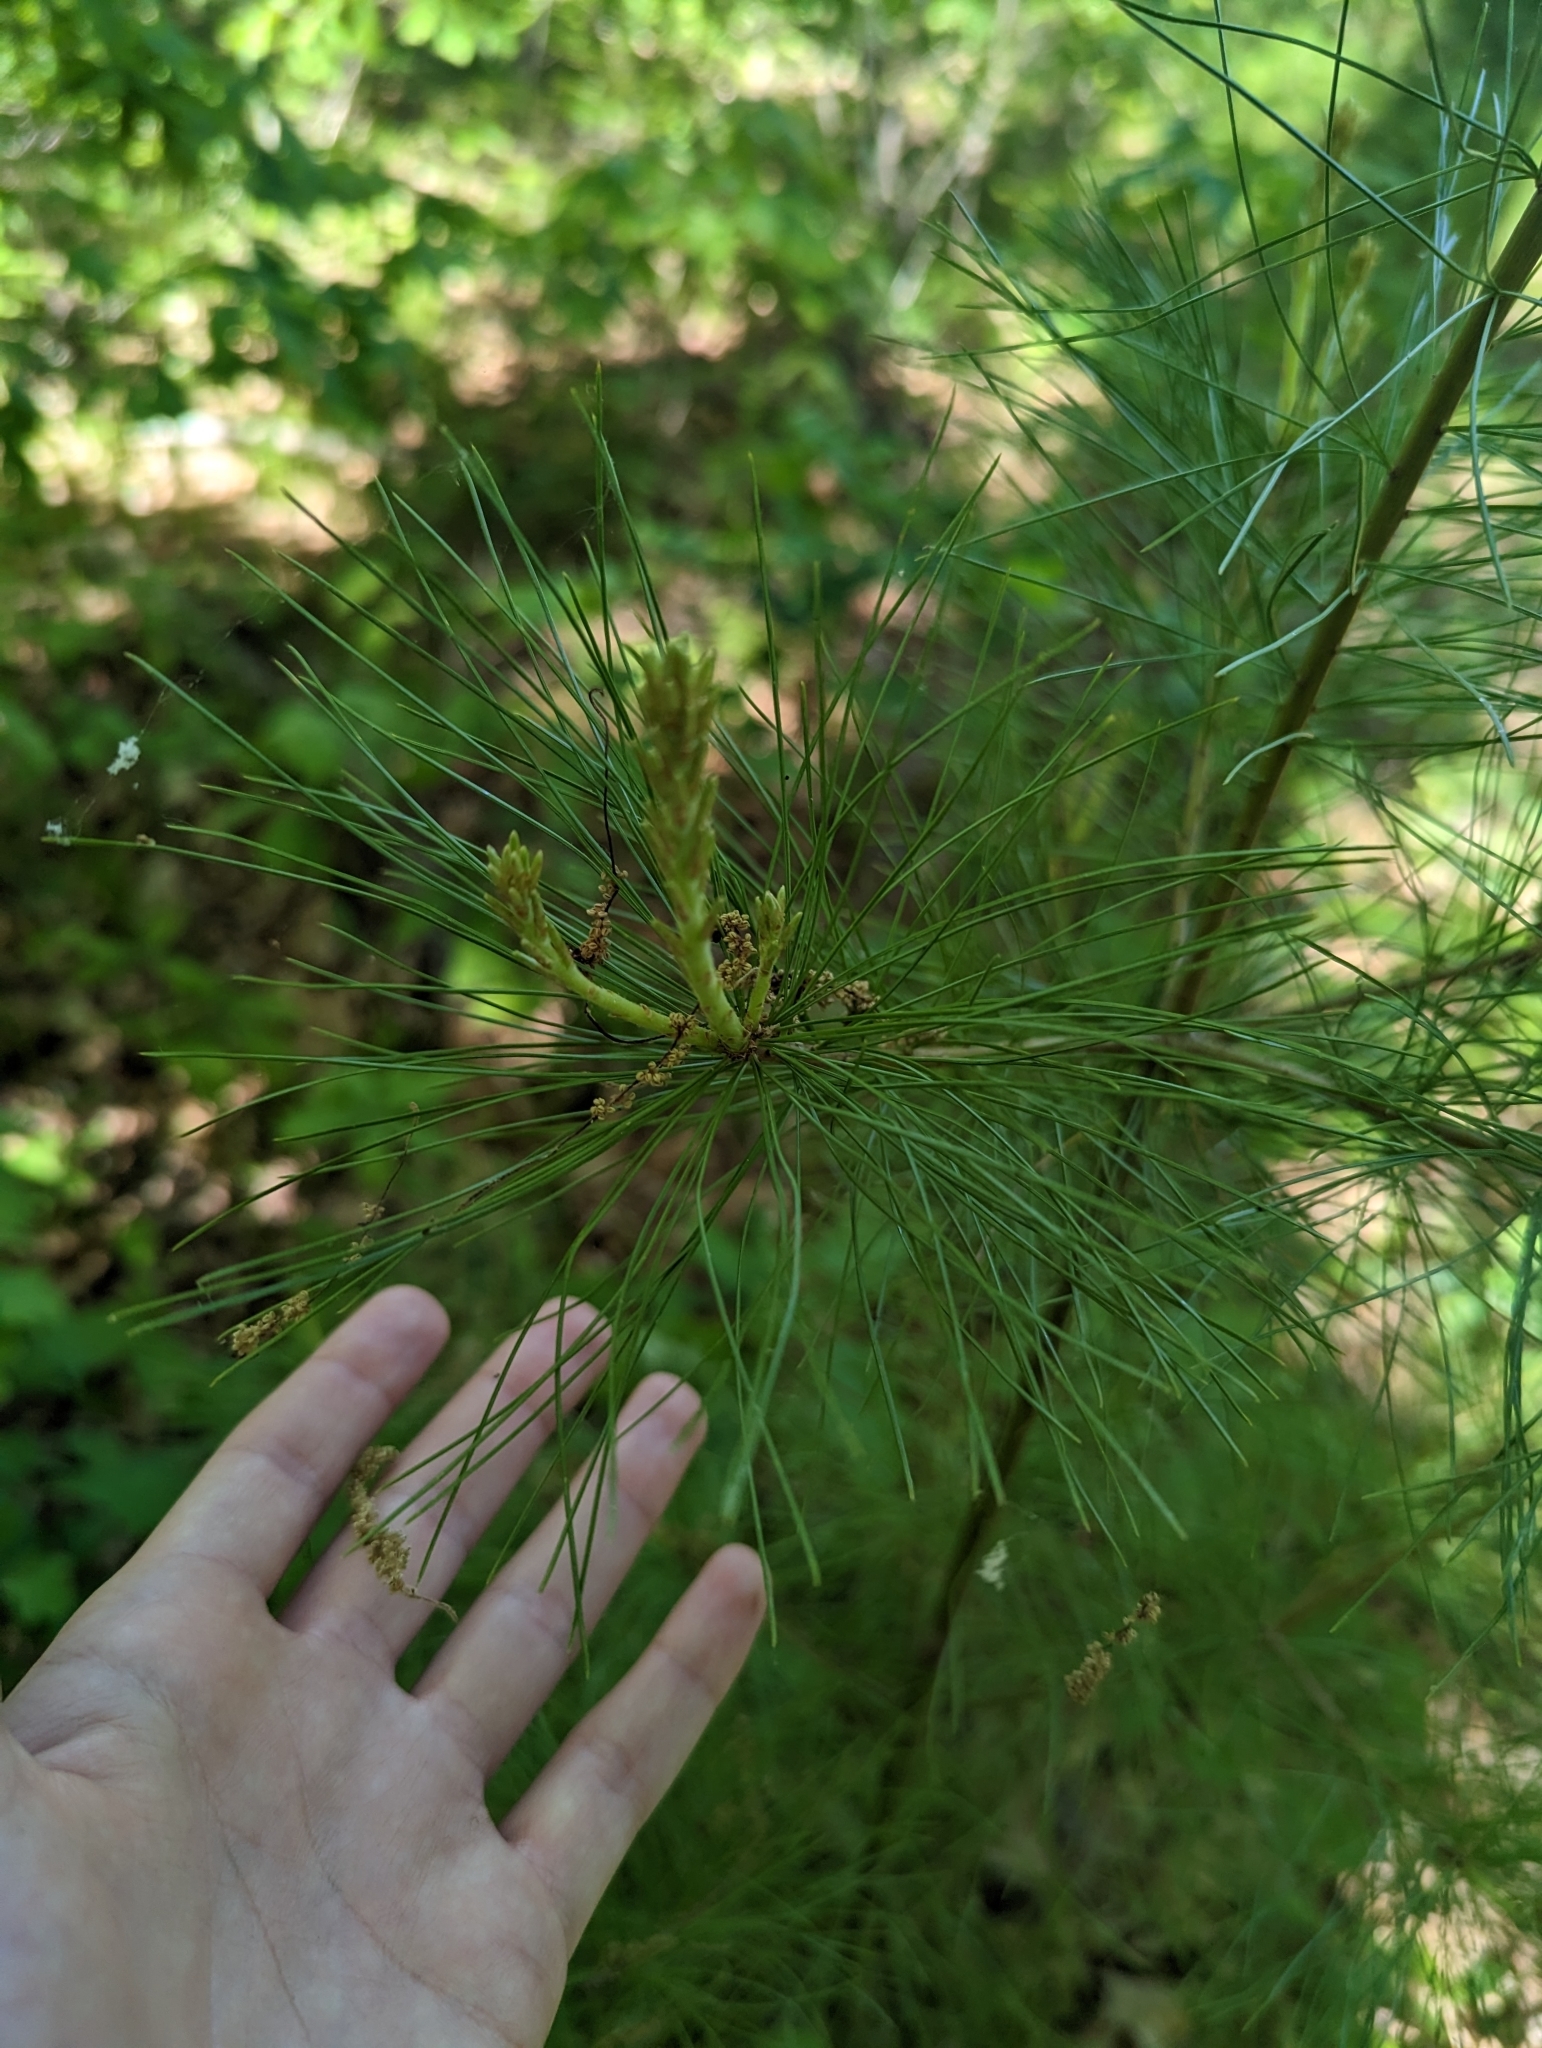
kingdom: Plantae
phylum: Tracheophyta
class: Pinopsida
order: Pinales
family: Pinaceae
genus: Pinus
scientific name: Pinus strobus
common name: Weymouth pine
